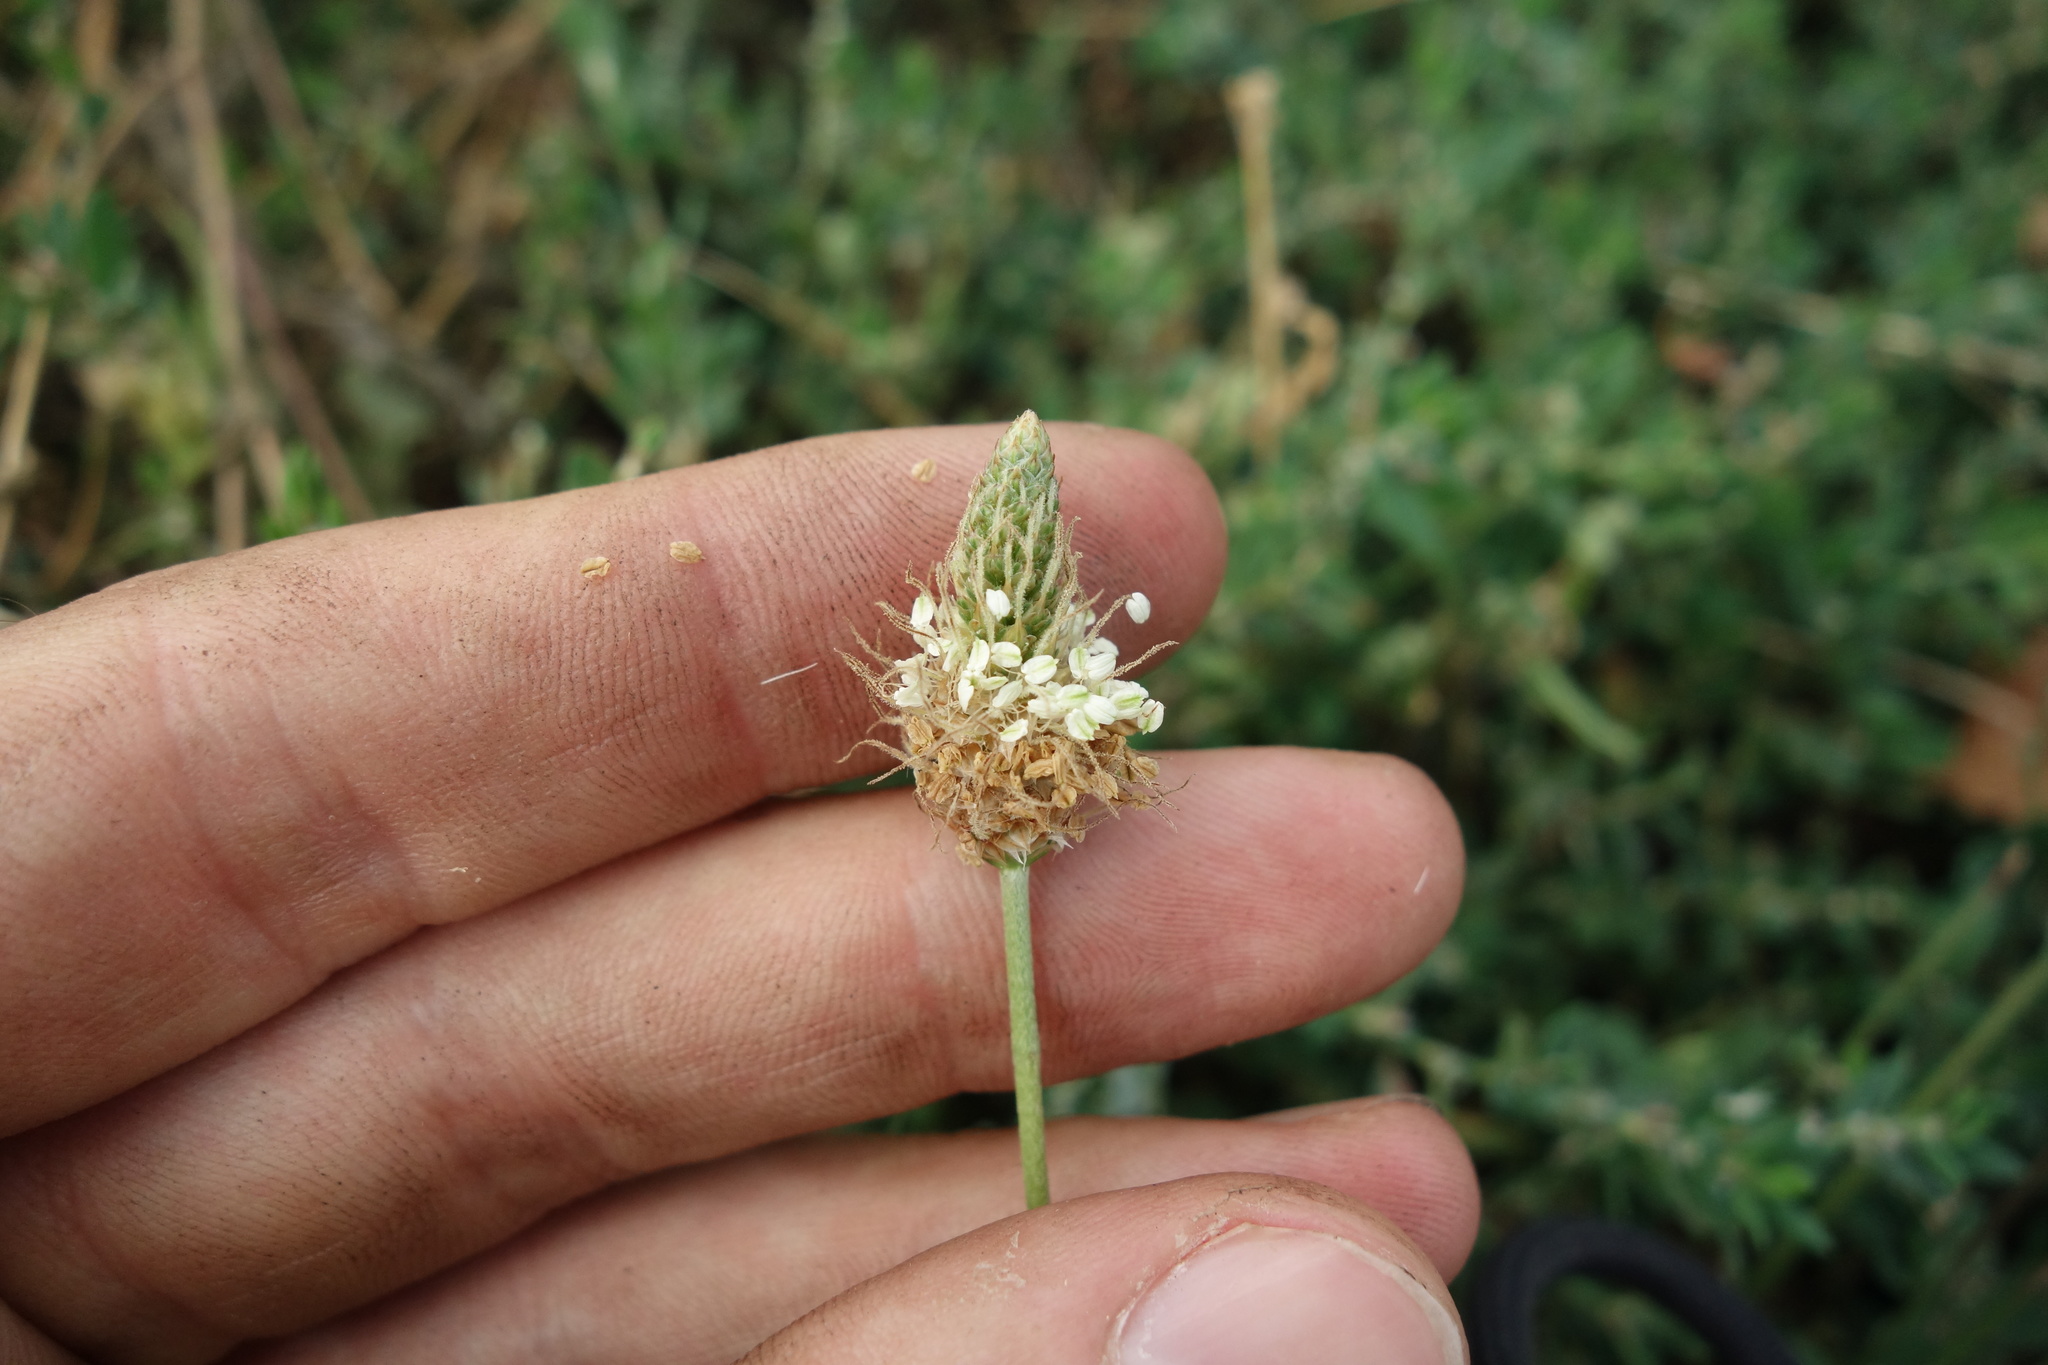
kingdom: Plantae
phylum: Tracheophyta
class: Magnoliopsida
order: Lamiales
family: Plantaginaceae
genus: Plantago
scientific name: Plantago lanceolata
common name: Ribwort plantain
